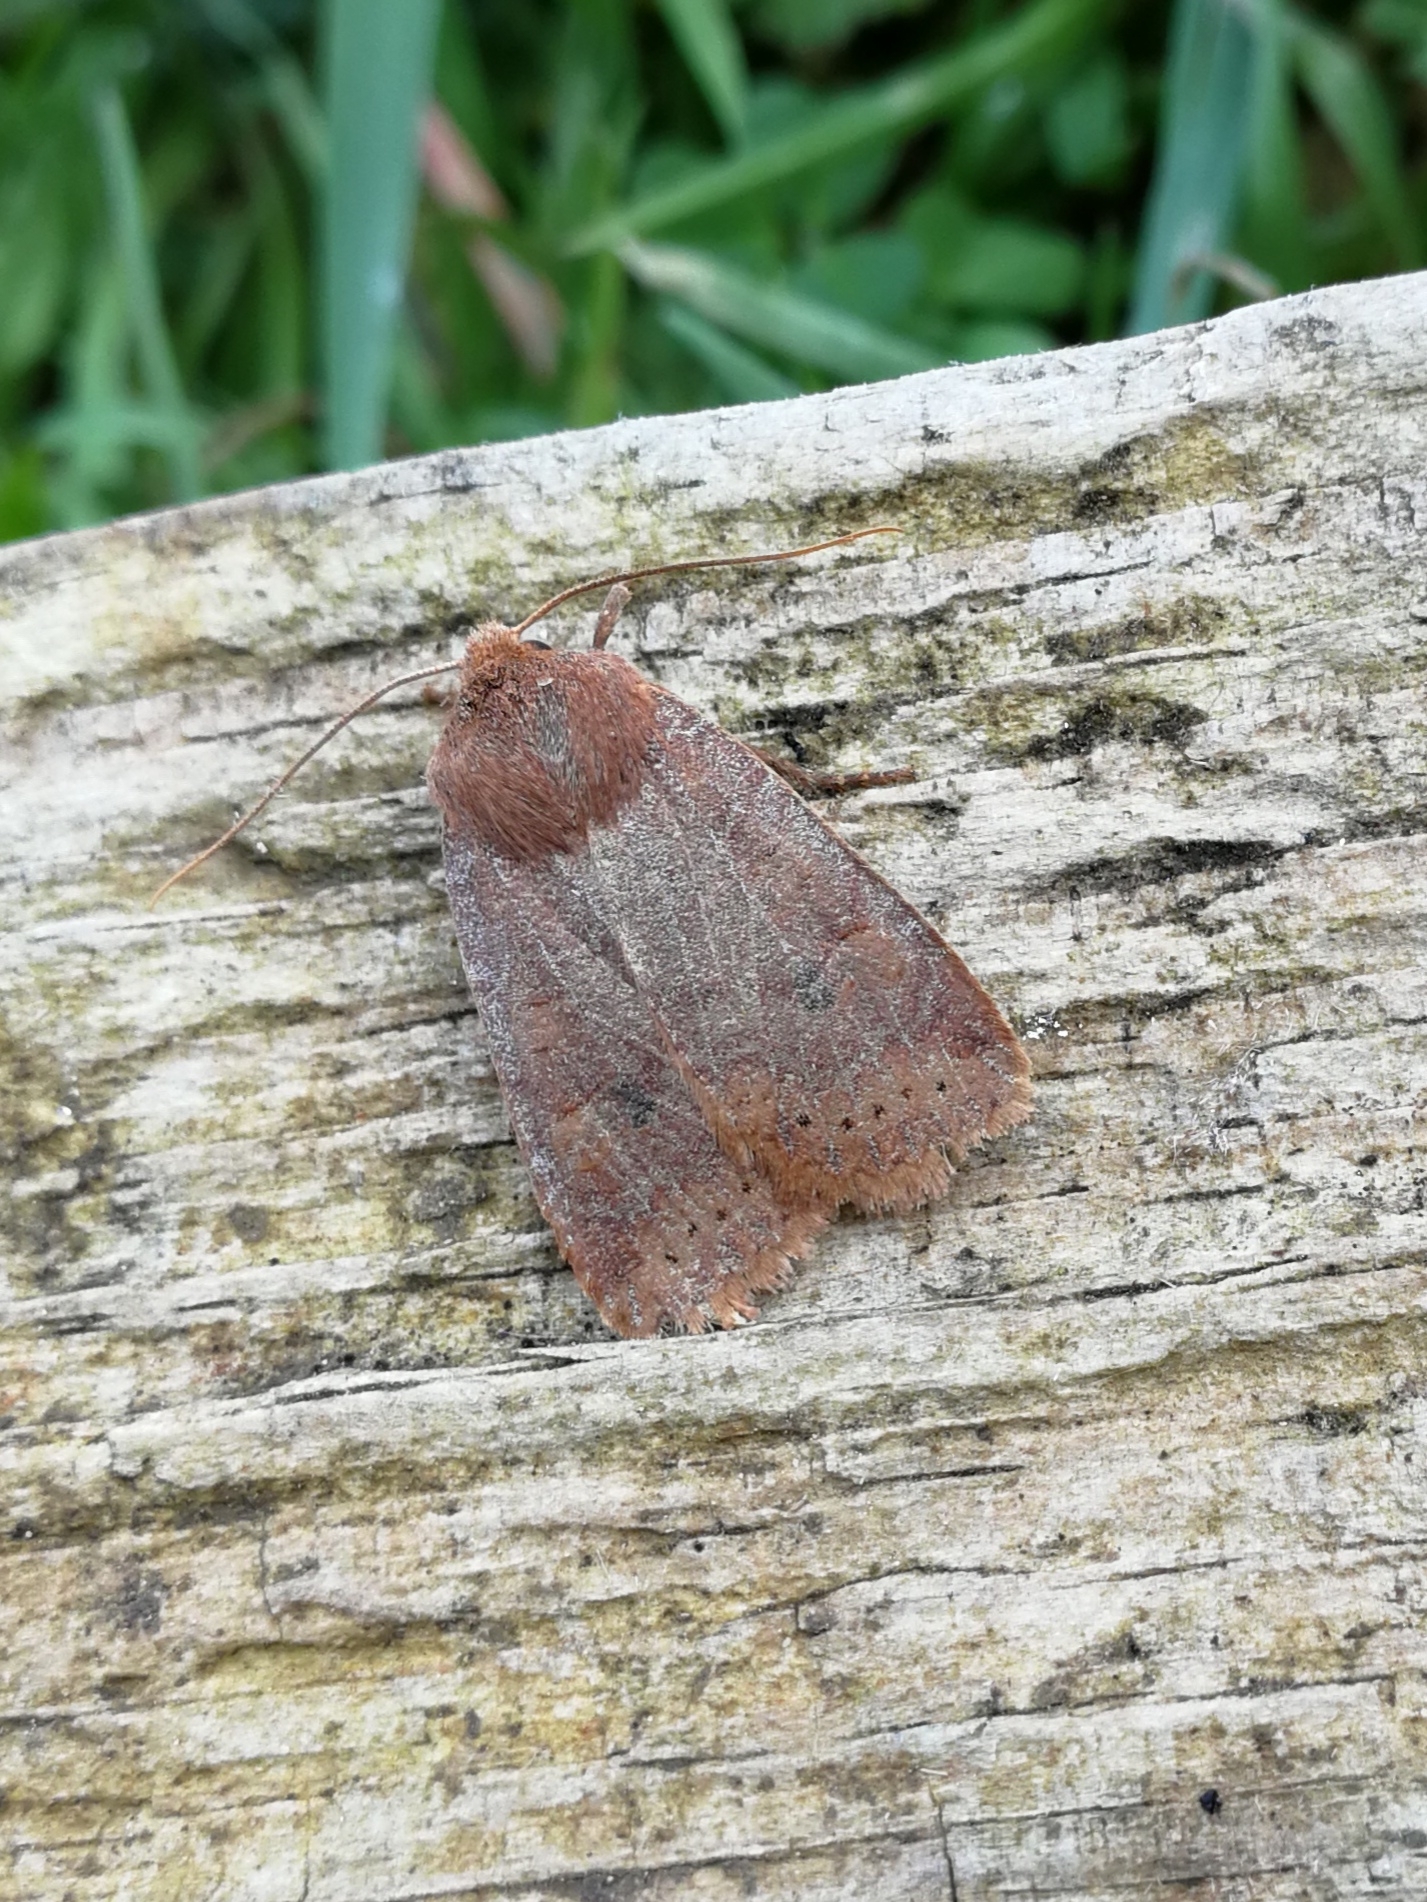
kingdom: Animalia
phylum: Arthropoda
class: Insecta
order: Lepidoptera
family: Noctuidae
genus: Conistra
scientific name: Conistra vaccinii
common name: Chestnut
